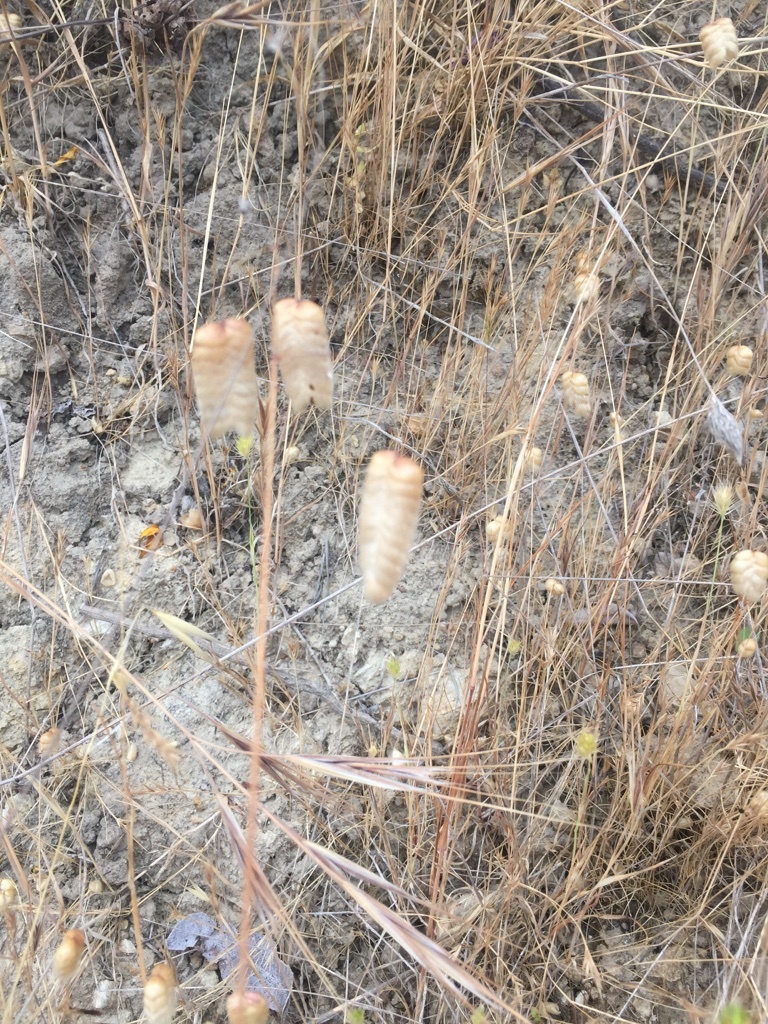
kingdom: Plantae
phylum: Tracheophyta
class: Liliopsida
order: Poales
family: Poaceae
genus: Briza
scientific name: Briza maxima
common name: Big quakinggrass
